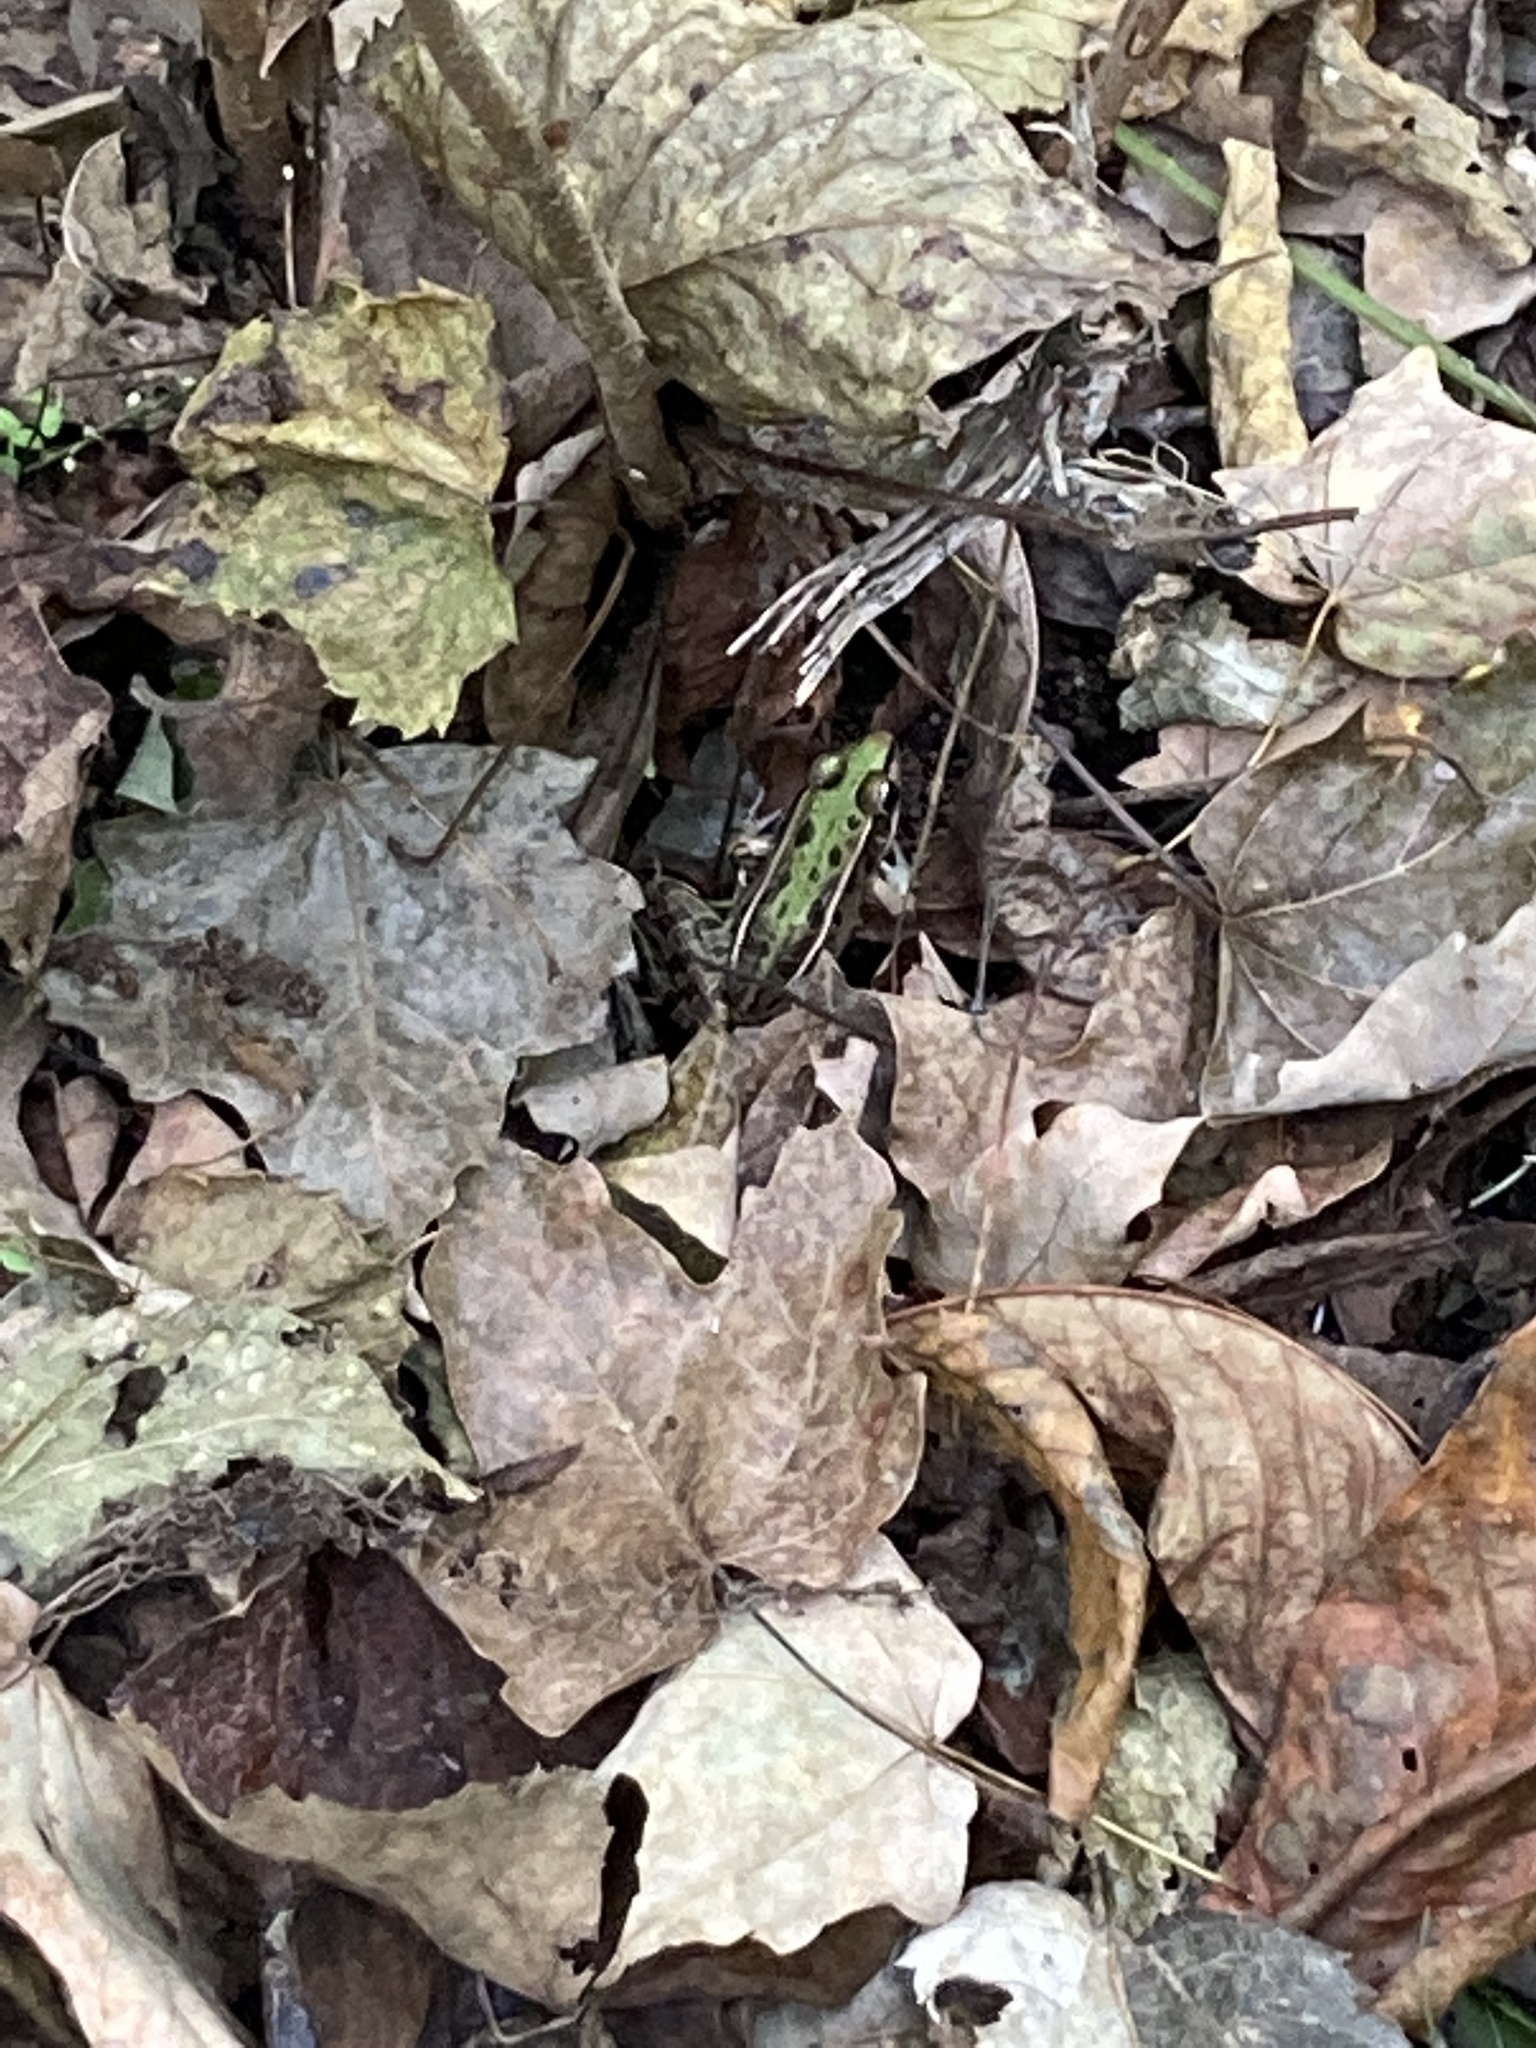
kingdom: Animalia
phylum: Chordata
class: Amphibia
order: Anura
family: Ranidae
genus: Lithobates
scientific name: Lithobates sphenocephalus
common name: Southern leopard frog
